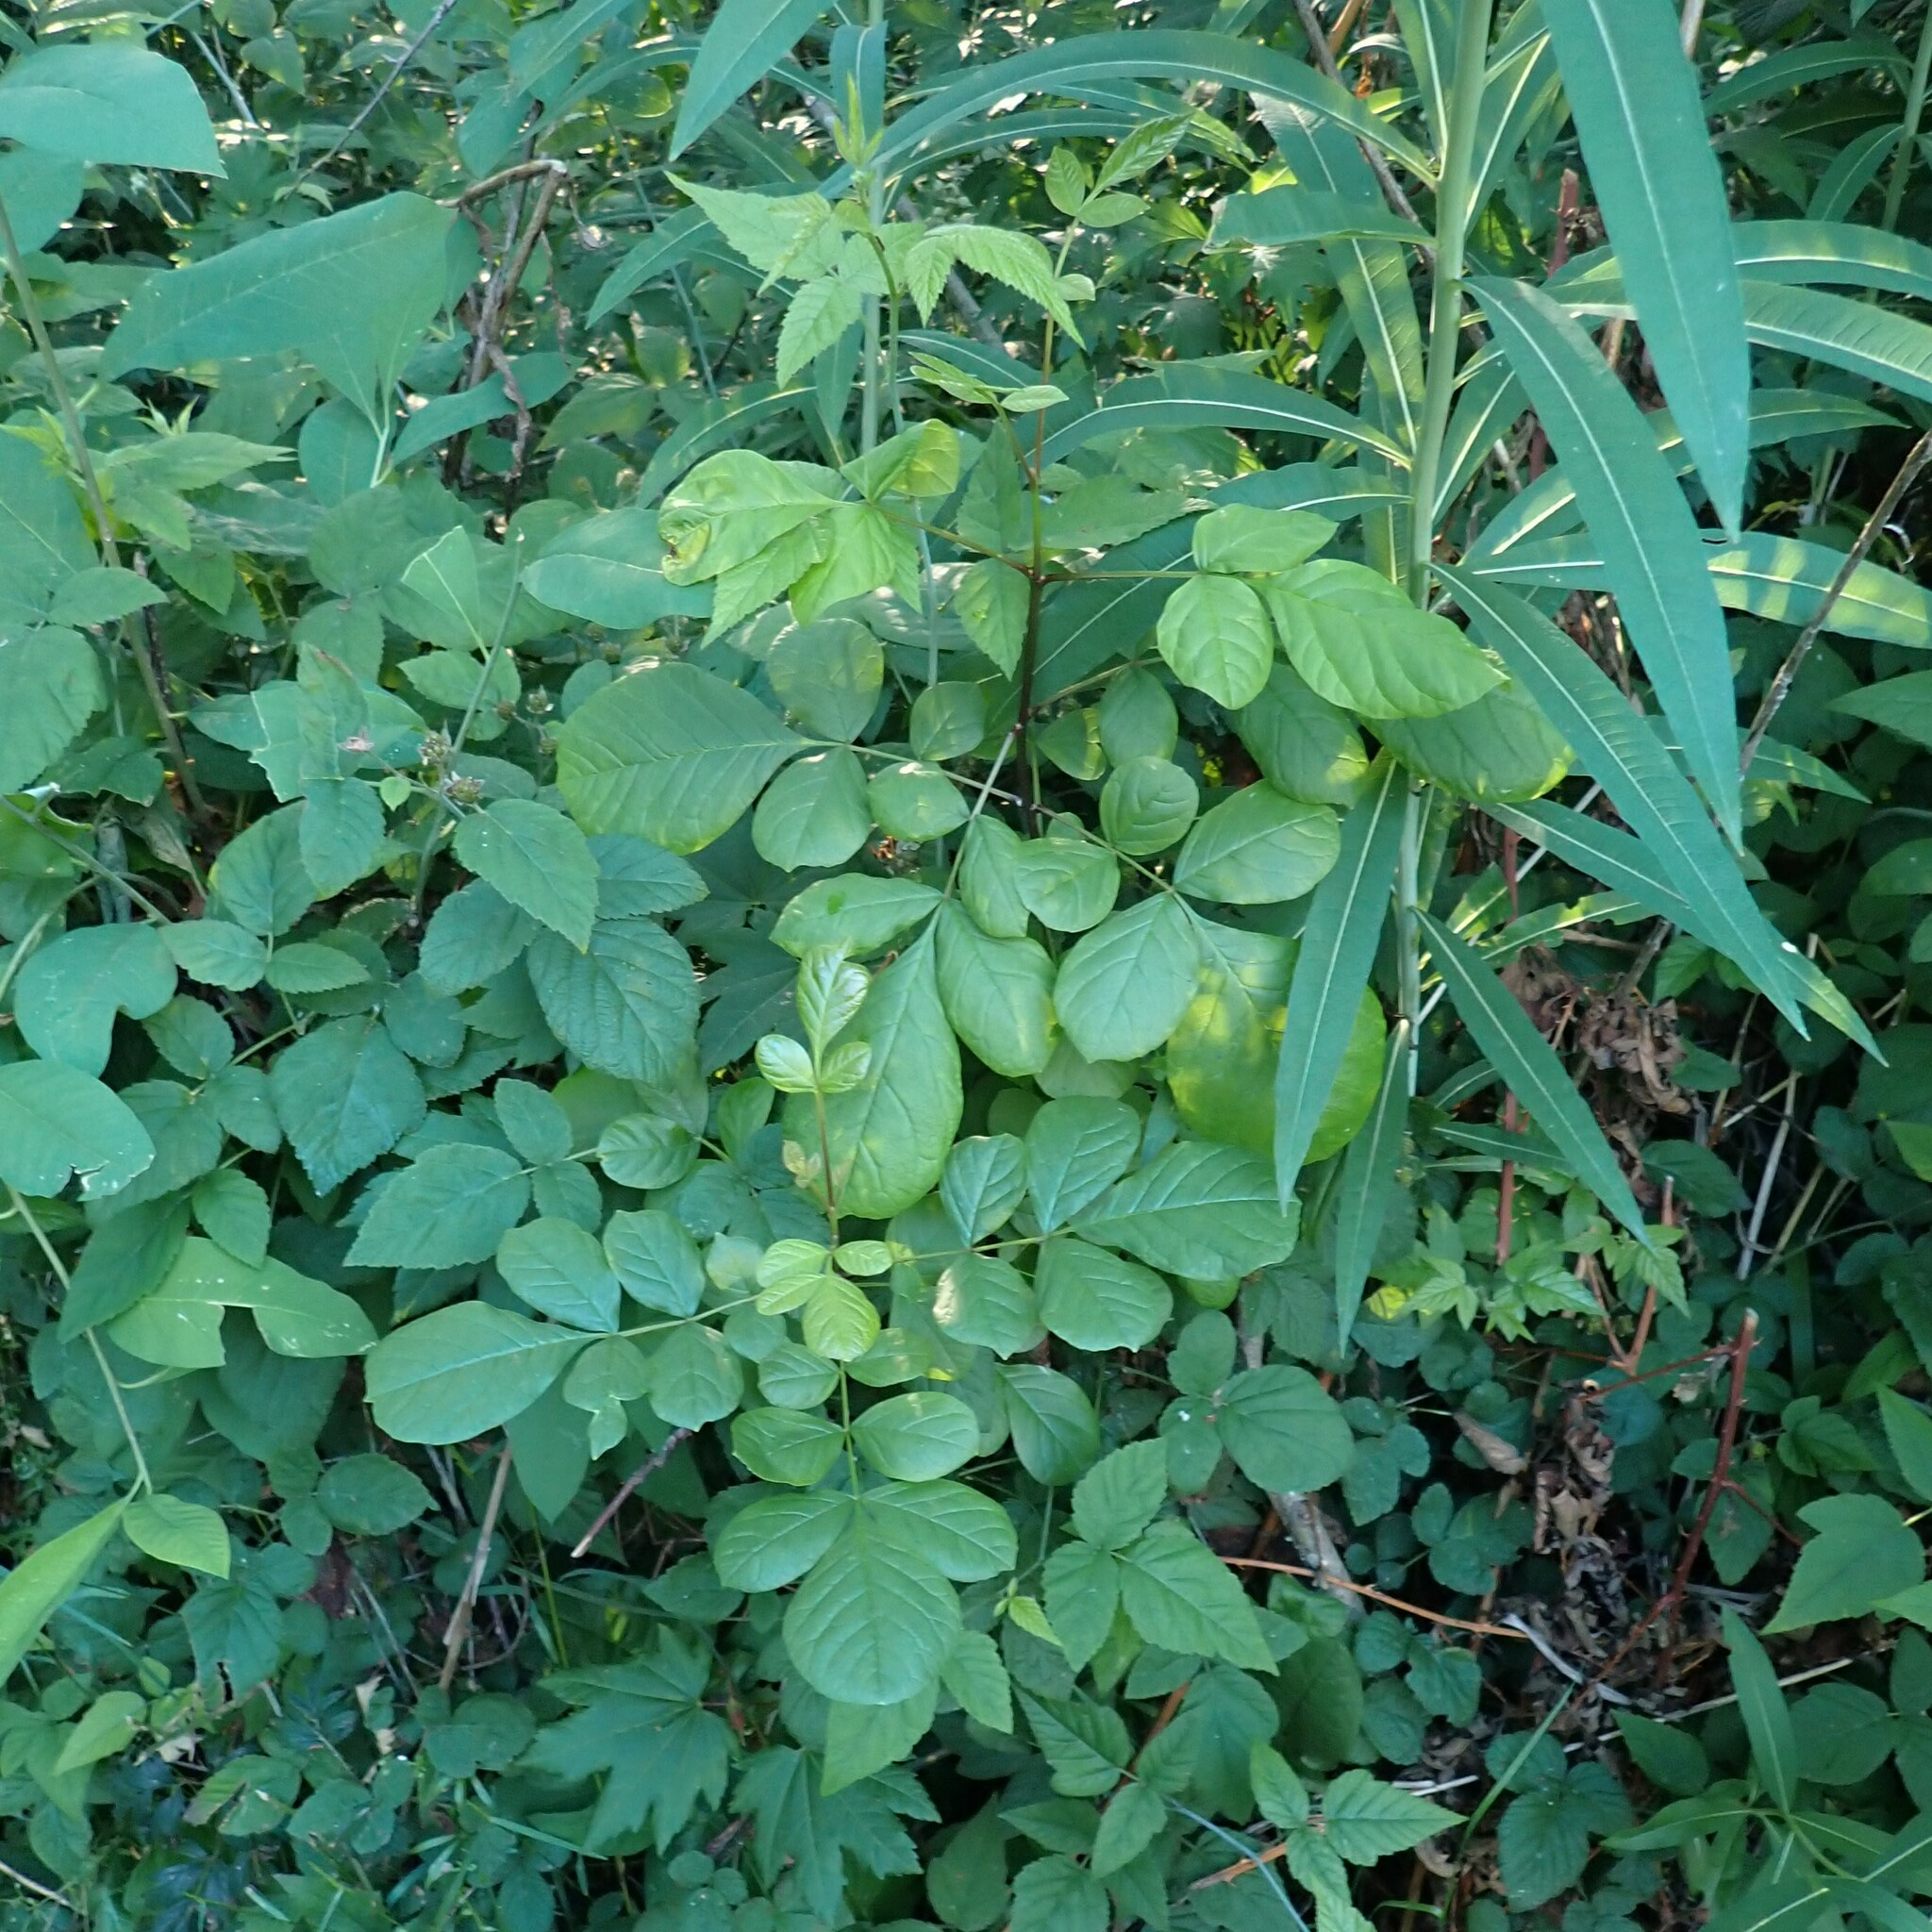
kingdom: Plantae
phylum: Tracheophyta
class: Magnoliopsida
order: Lamiales
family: Oleaceae
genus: Fraxinus
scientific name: Fraxinus latifolia
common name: Oregon ash
